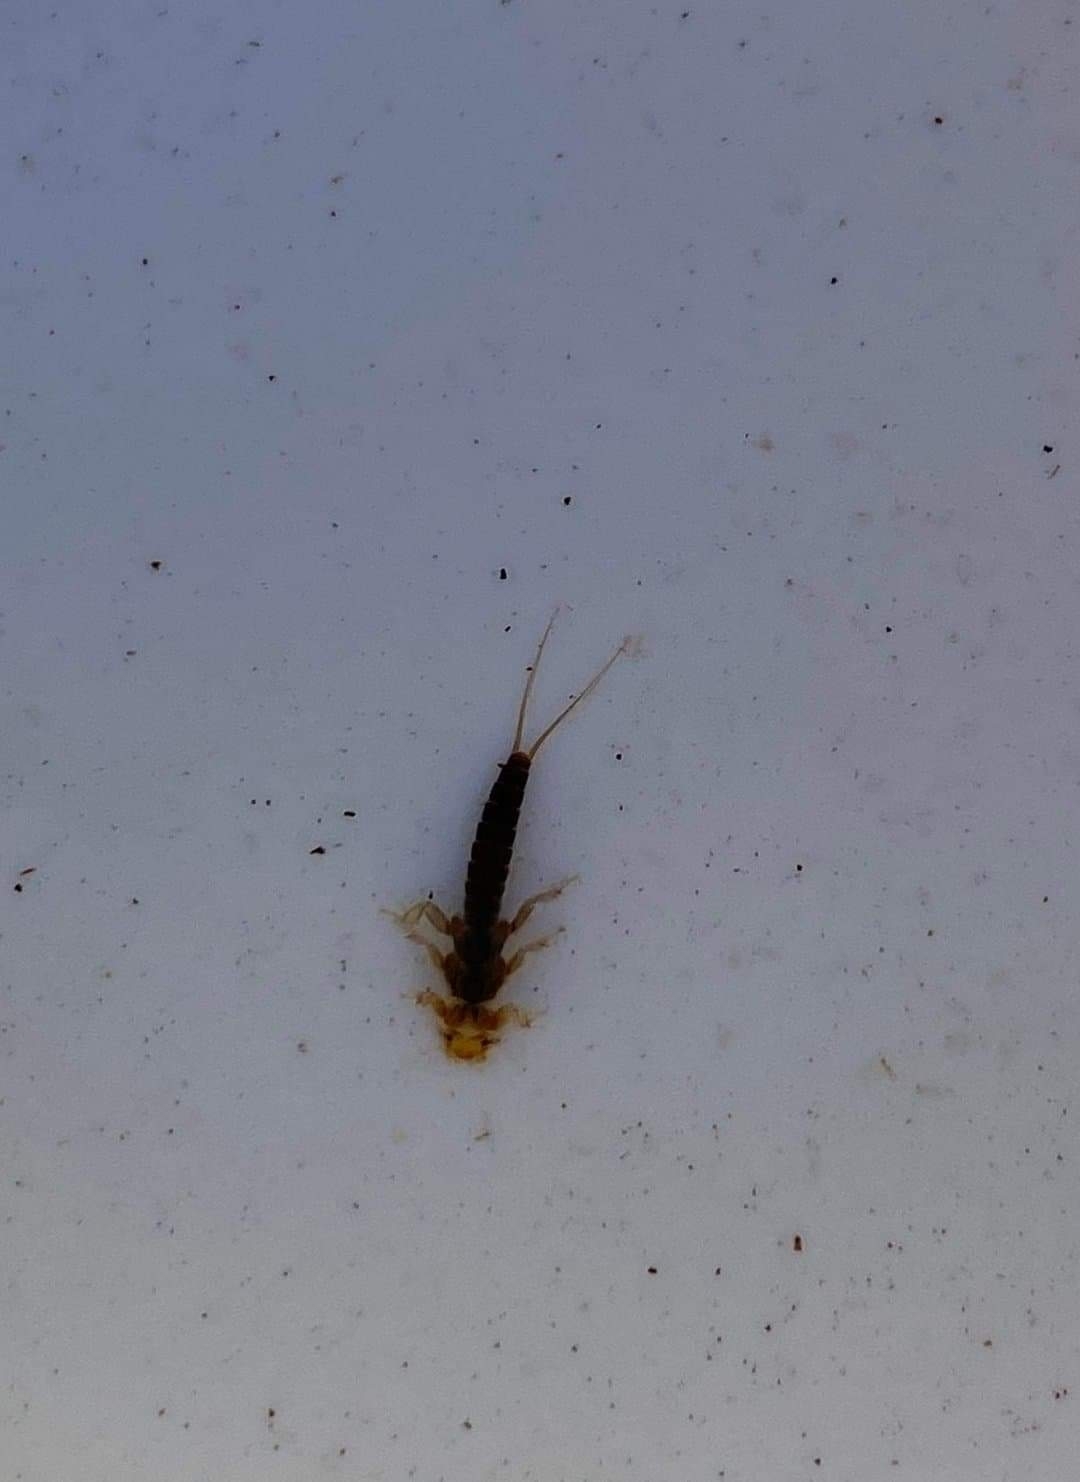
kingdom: Animalia
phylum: Arthropoda
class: Insecta
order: Plecoptera
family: Chloroperlidae
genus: Isoptena
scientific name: Isoptena serricornis
